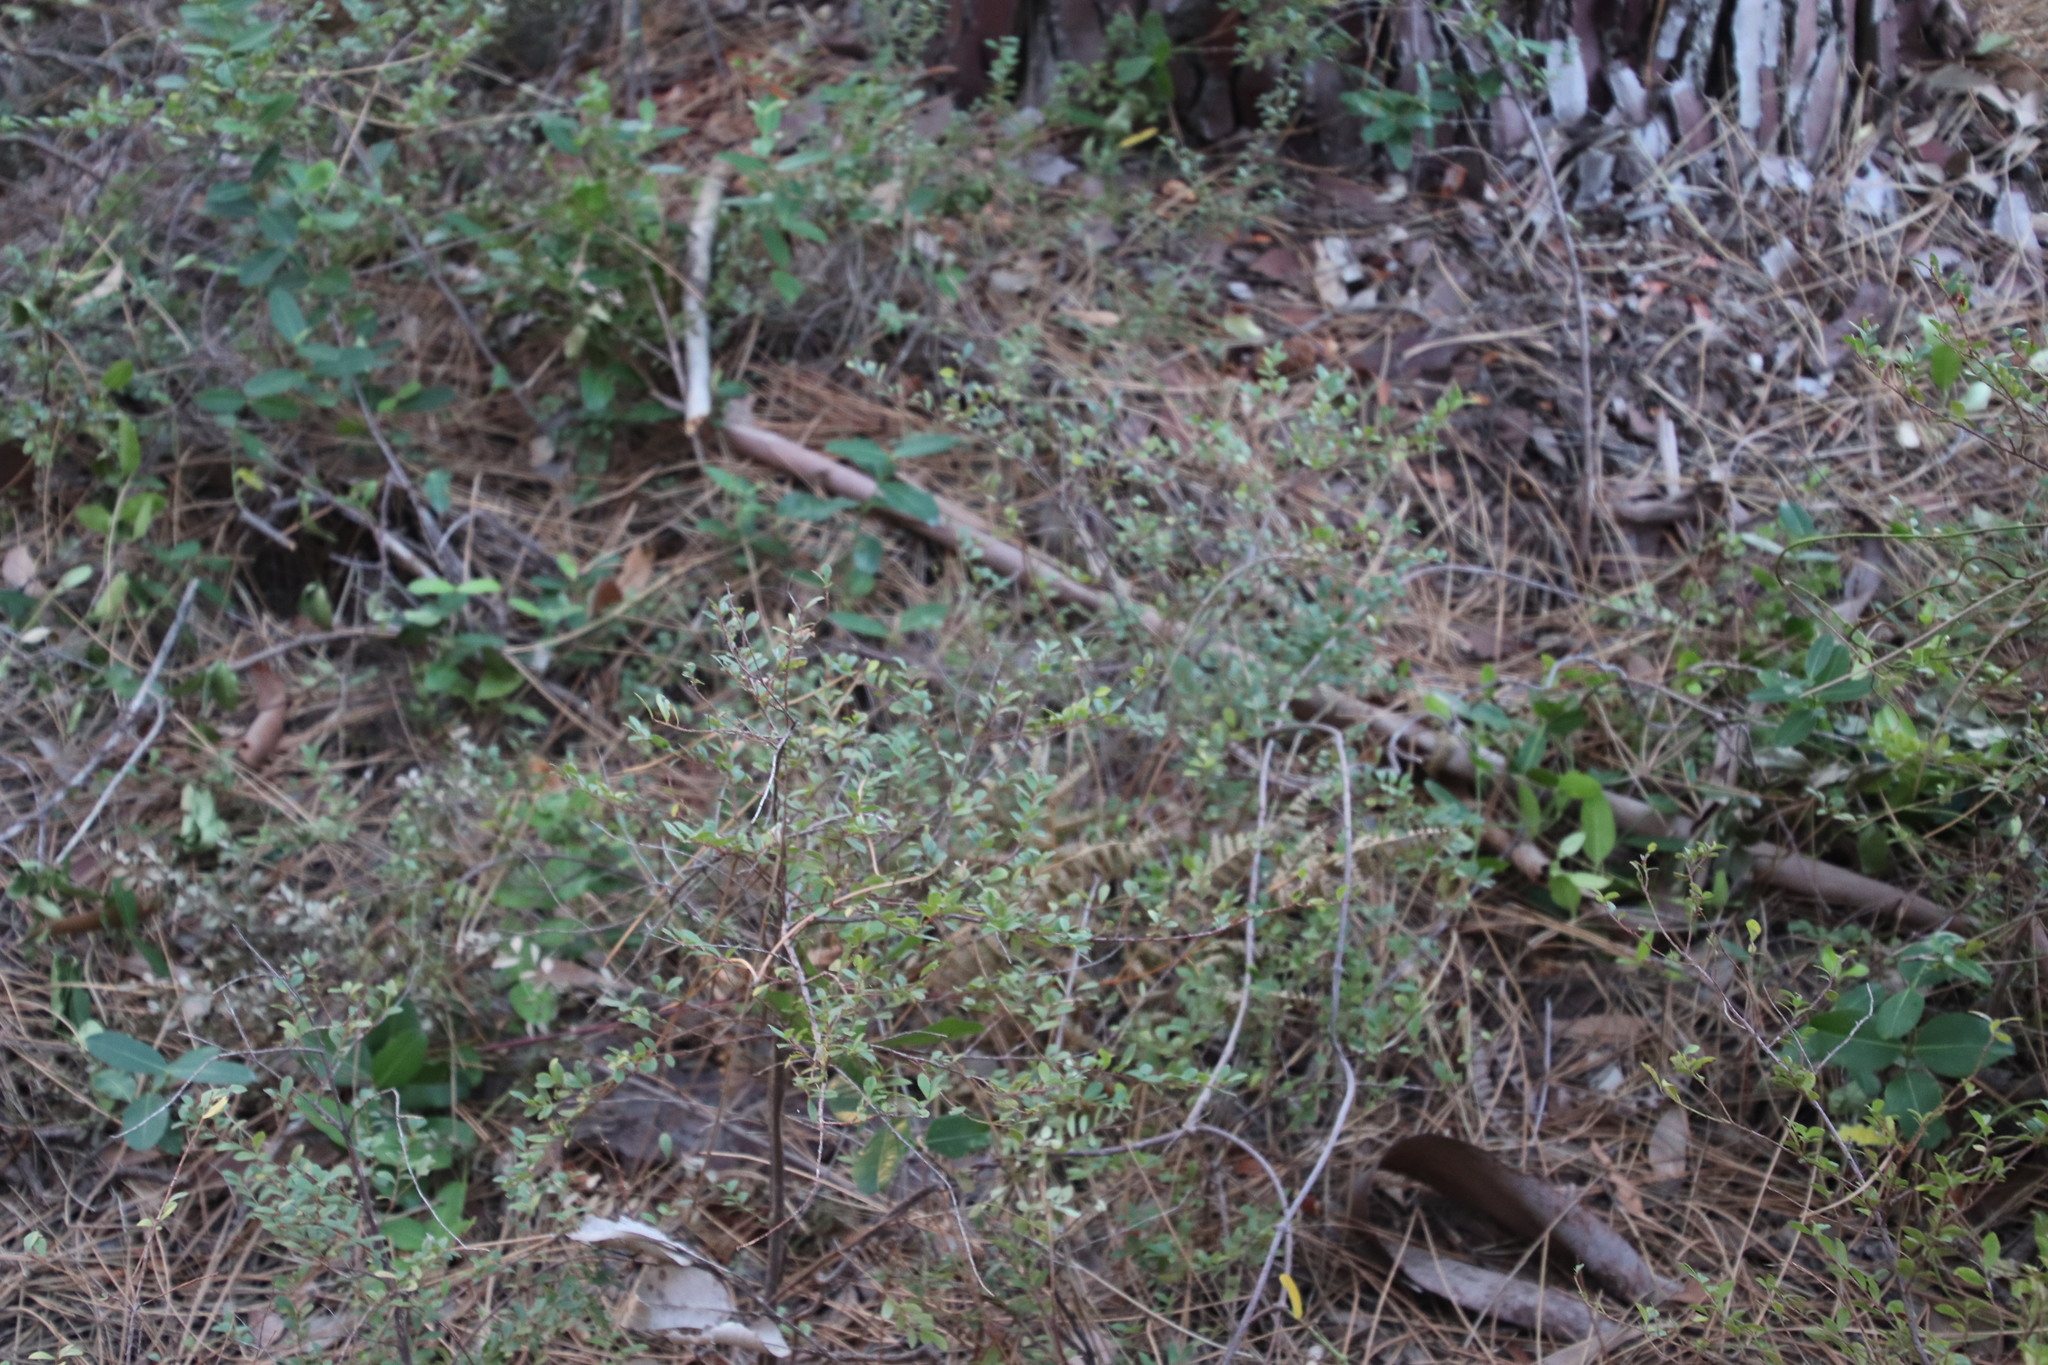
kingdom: Plantae
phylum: Tracheophyta
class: Magnoliopsida
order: Ericales
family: Primulaceae
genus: Myrsine
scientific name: Myrsine africana
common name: African-boxwood
